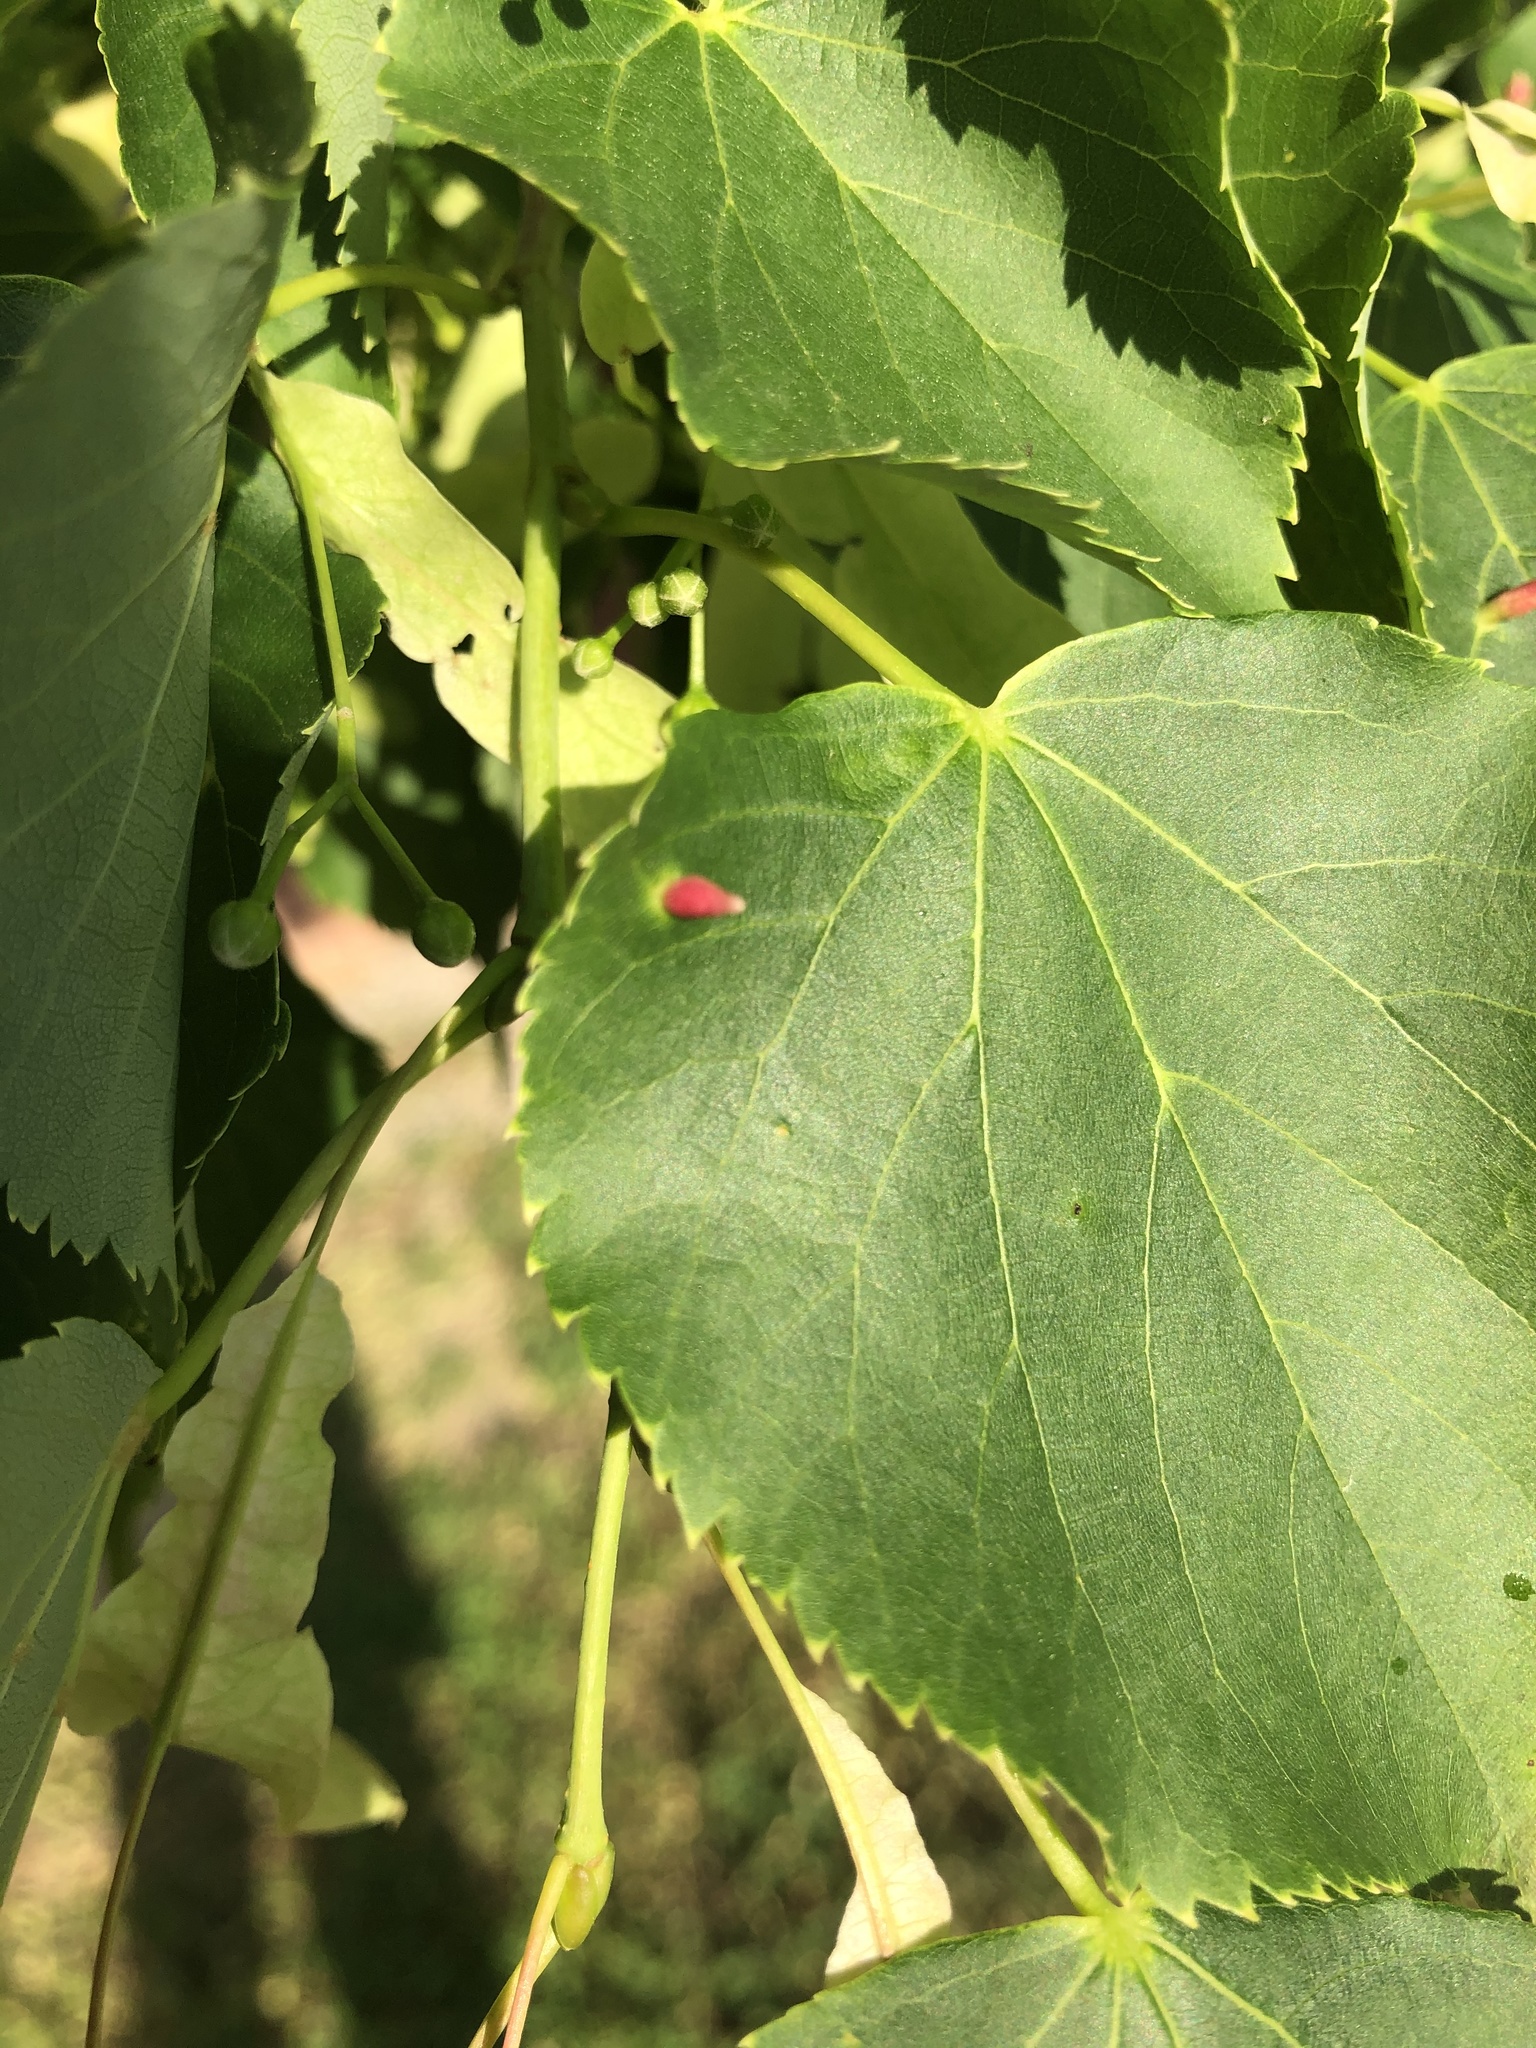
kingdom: Animalia
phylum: Arthropoda
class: Arachnida
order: Trombidiformes
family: Eriophyidae
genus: Eriophyes
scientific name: Eriophyes tiliae
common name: Red nail gall mite
